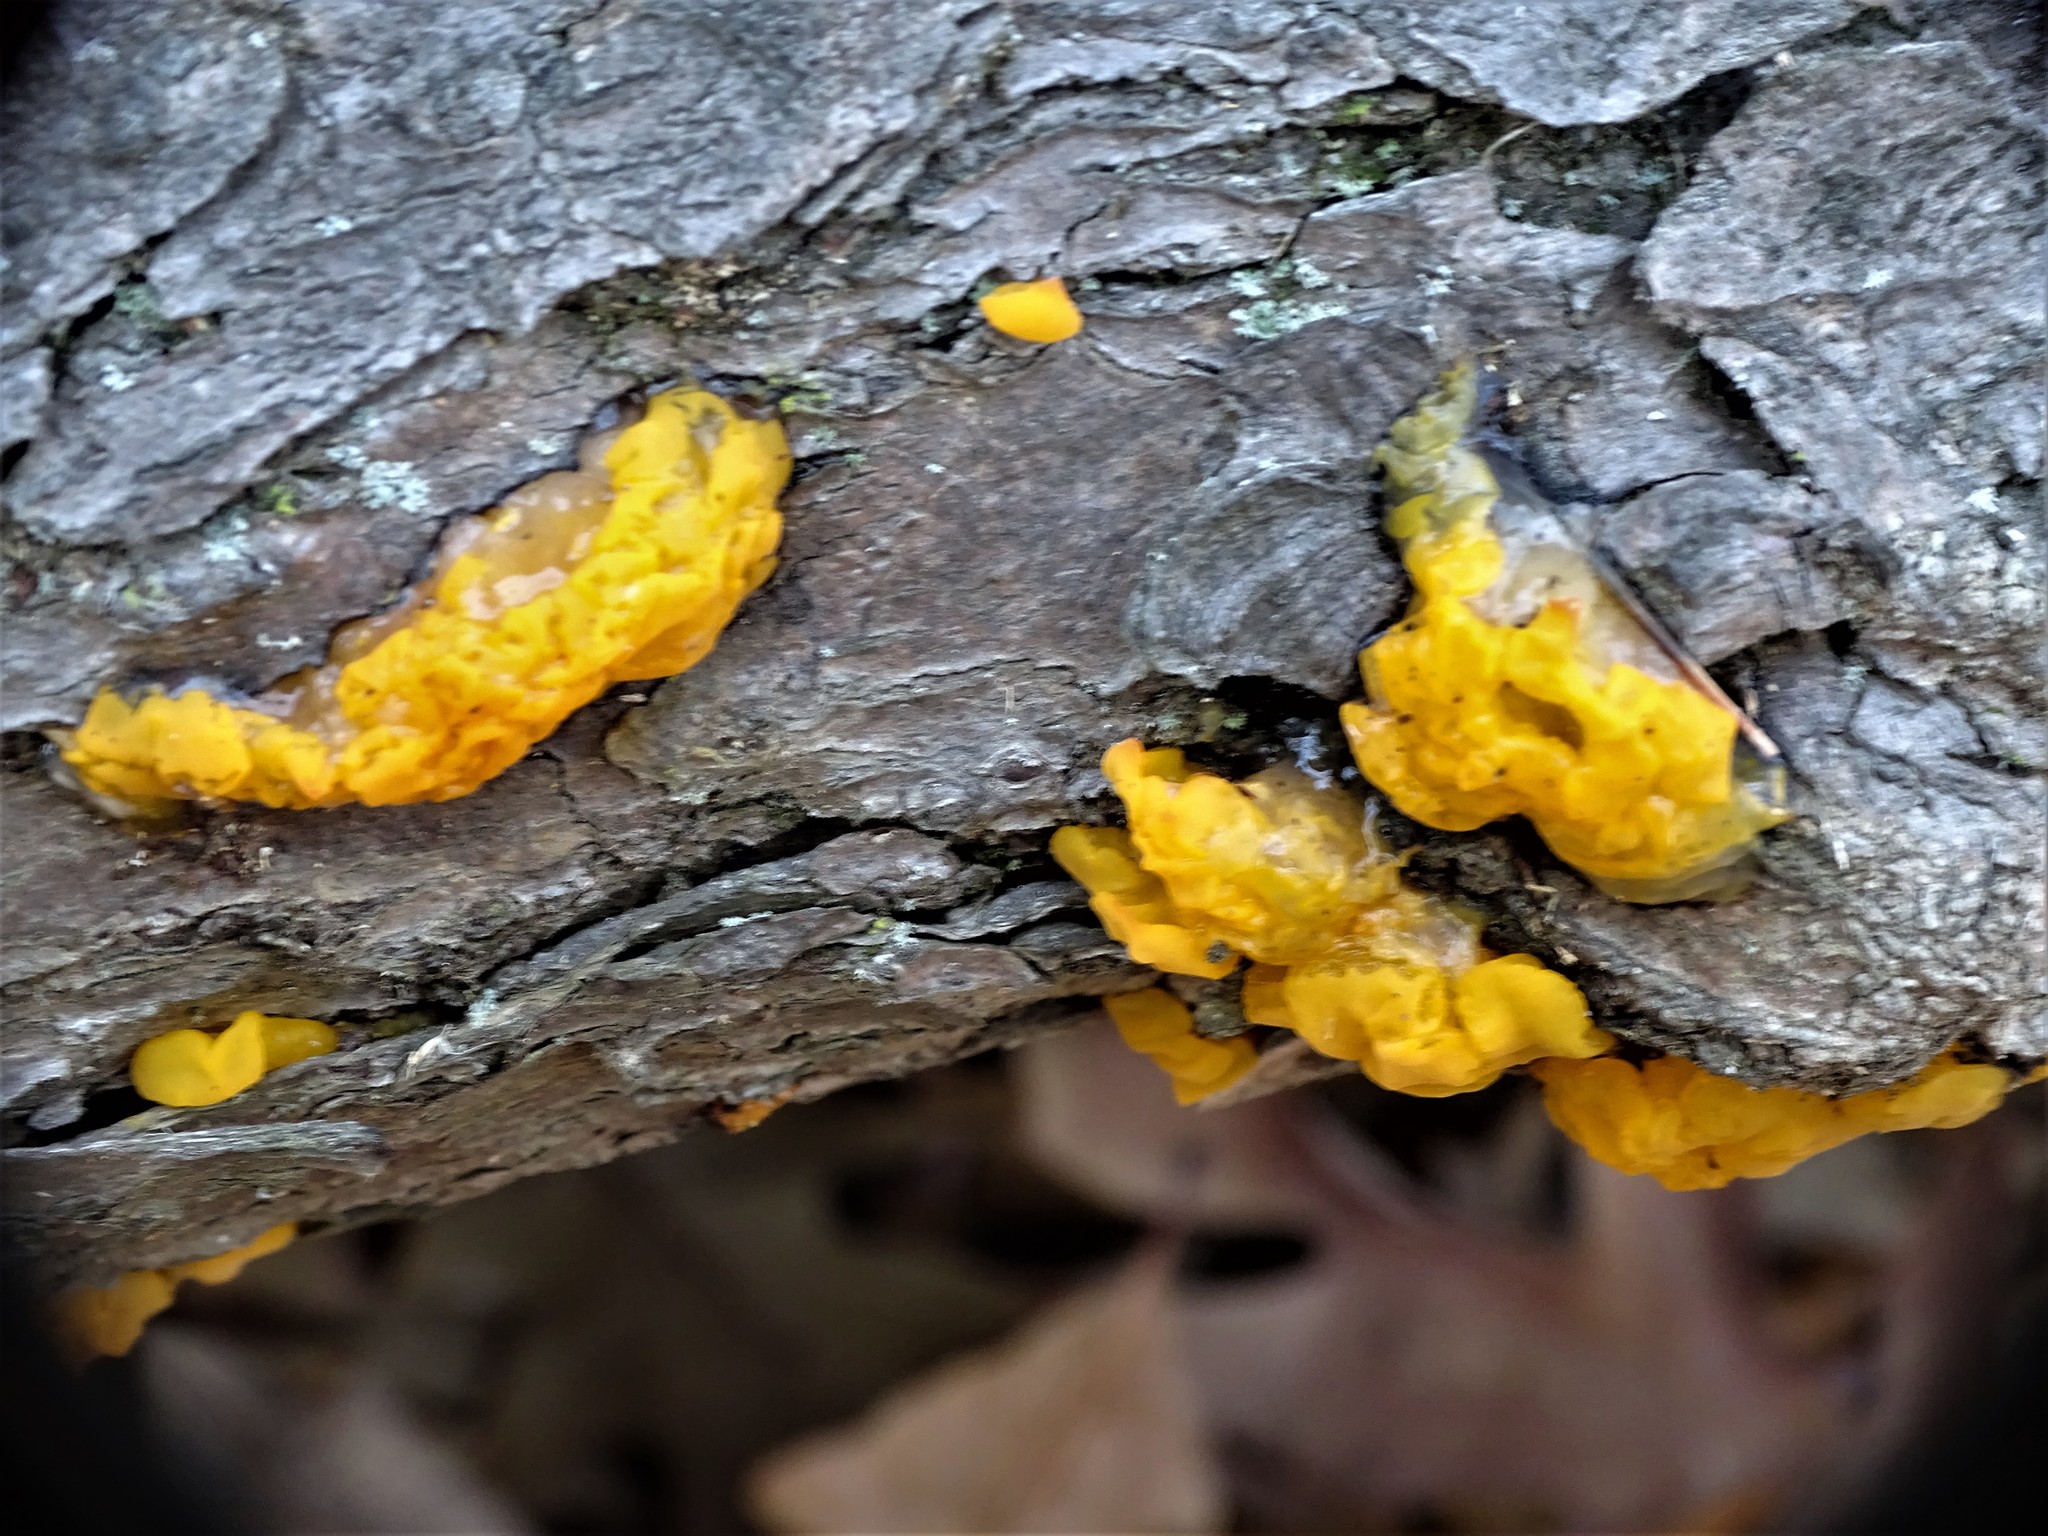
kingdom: Fungi
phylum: Basidiomycota
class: Dacrymycetes
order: Dacrymycetales
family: Dacrymycetaceae
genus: Dacrymyces
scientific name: Dacrymyces chrysospermus
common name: Orange jelly spot
